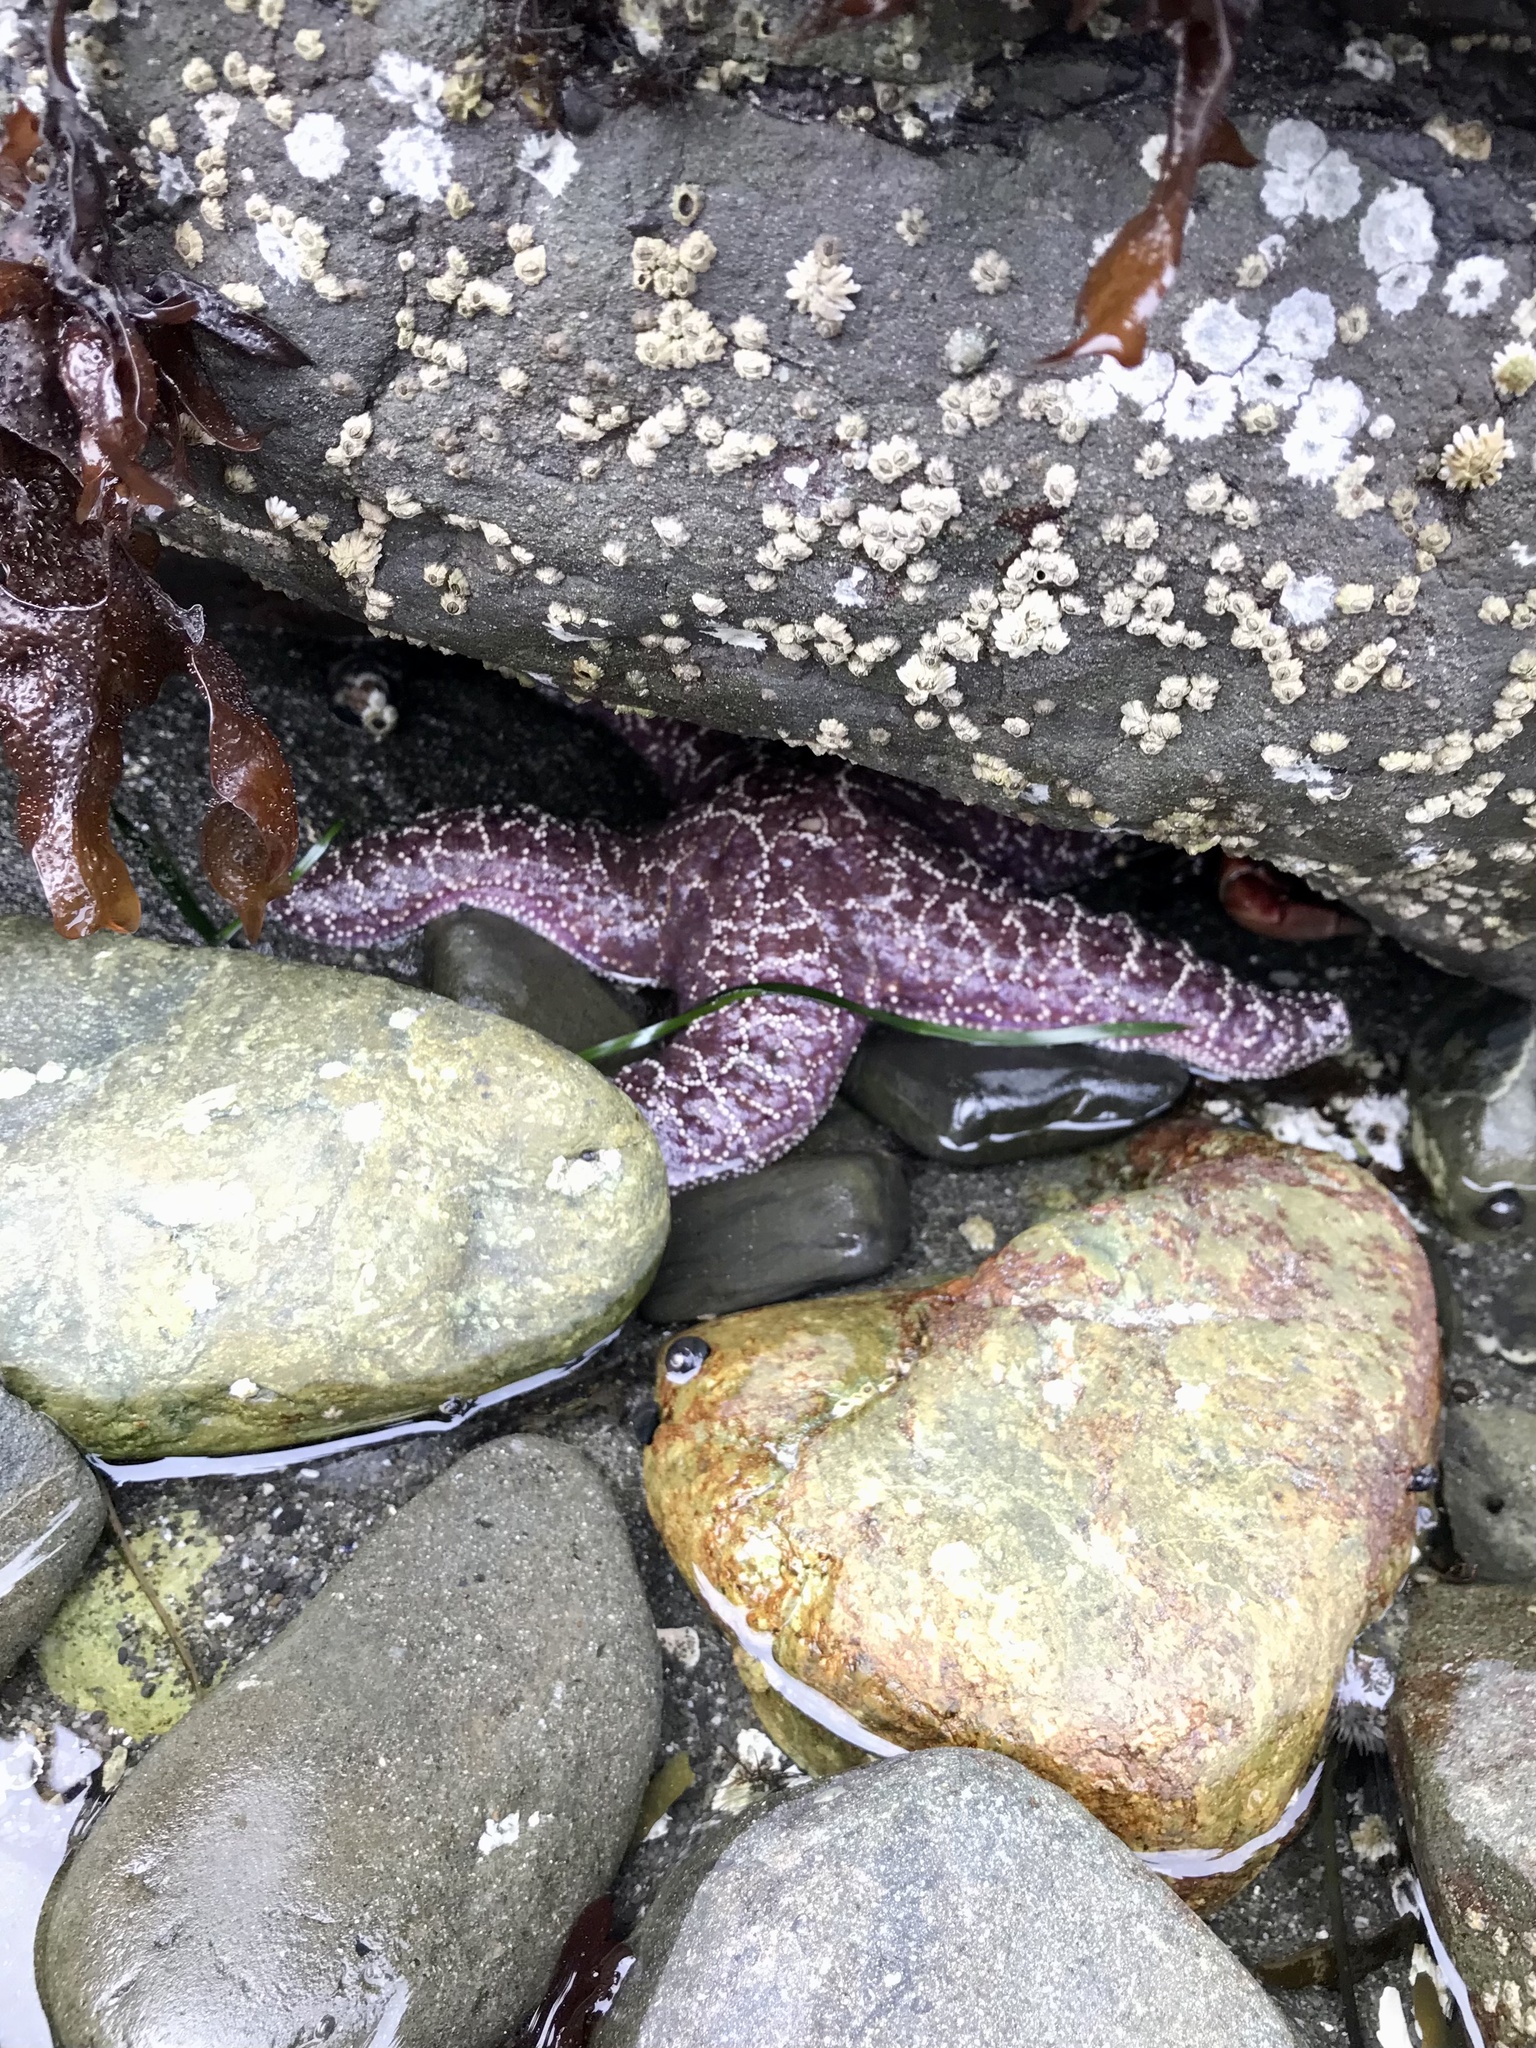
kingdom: Animalia
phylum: Echinodermata
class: Asteroidea
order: Forcipulatida
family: Asteriidae
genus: Pisaster
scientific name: Pisaster ochraceus
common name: Ochre stars
